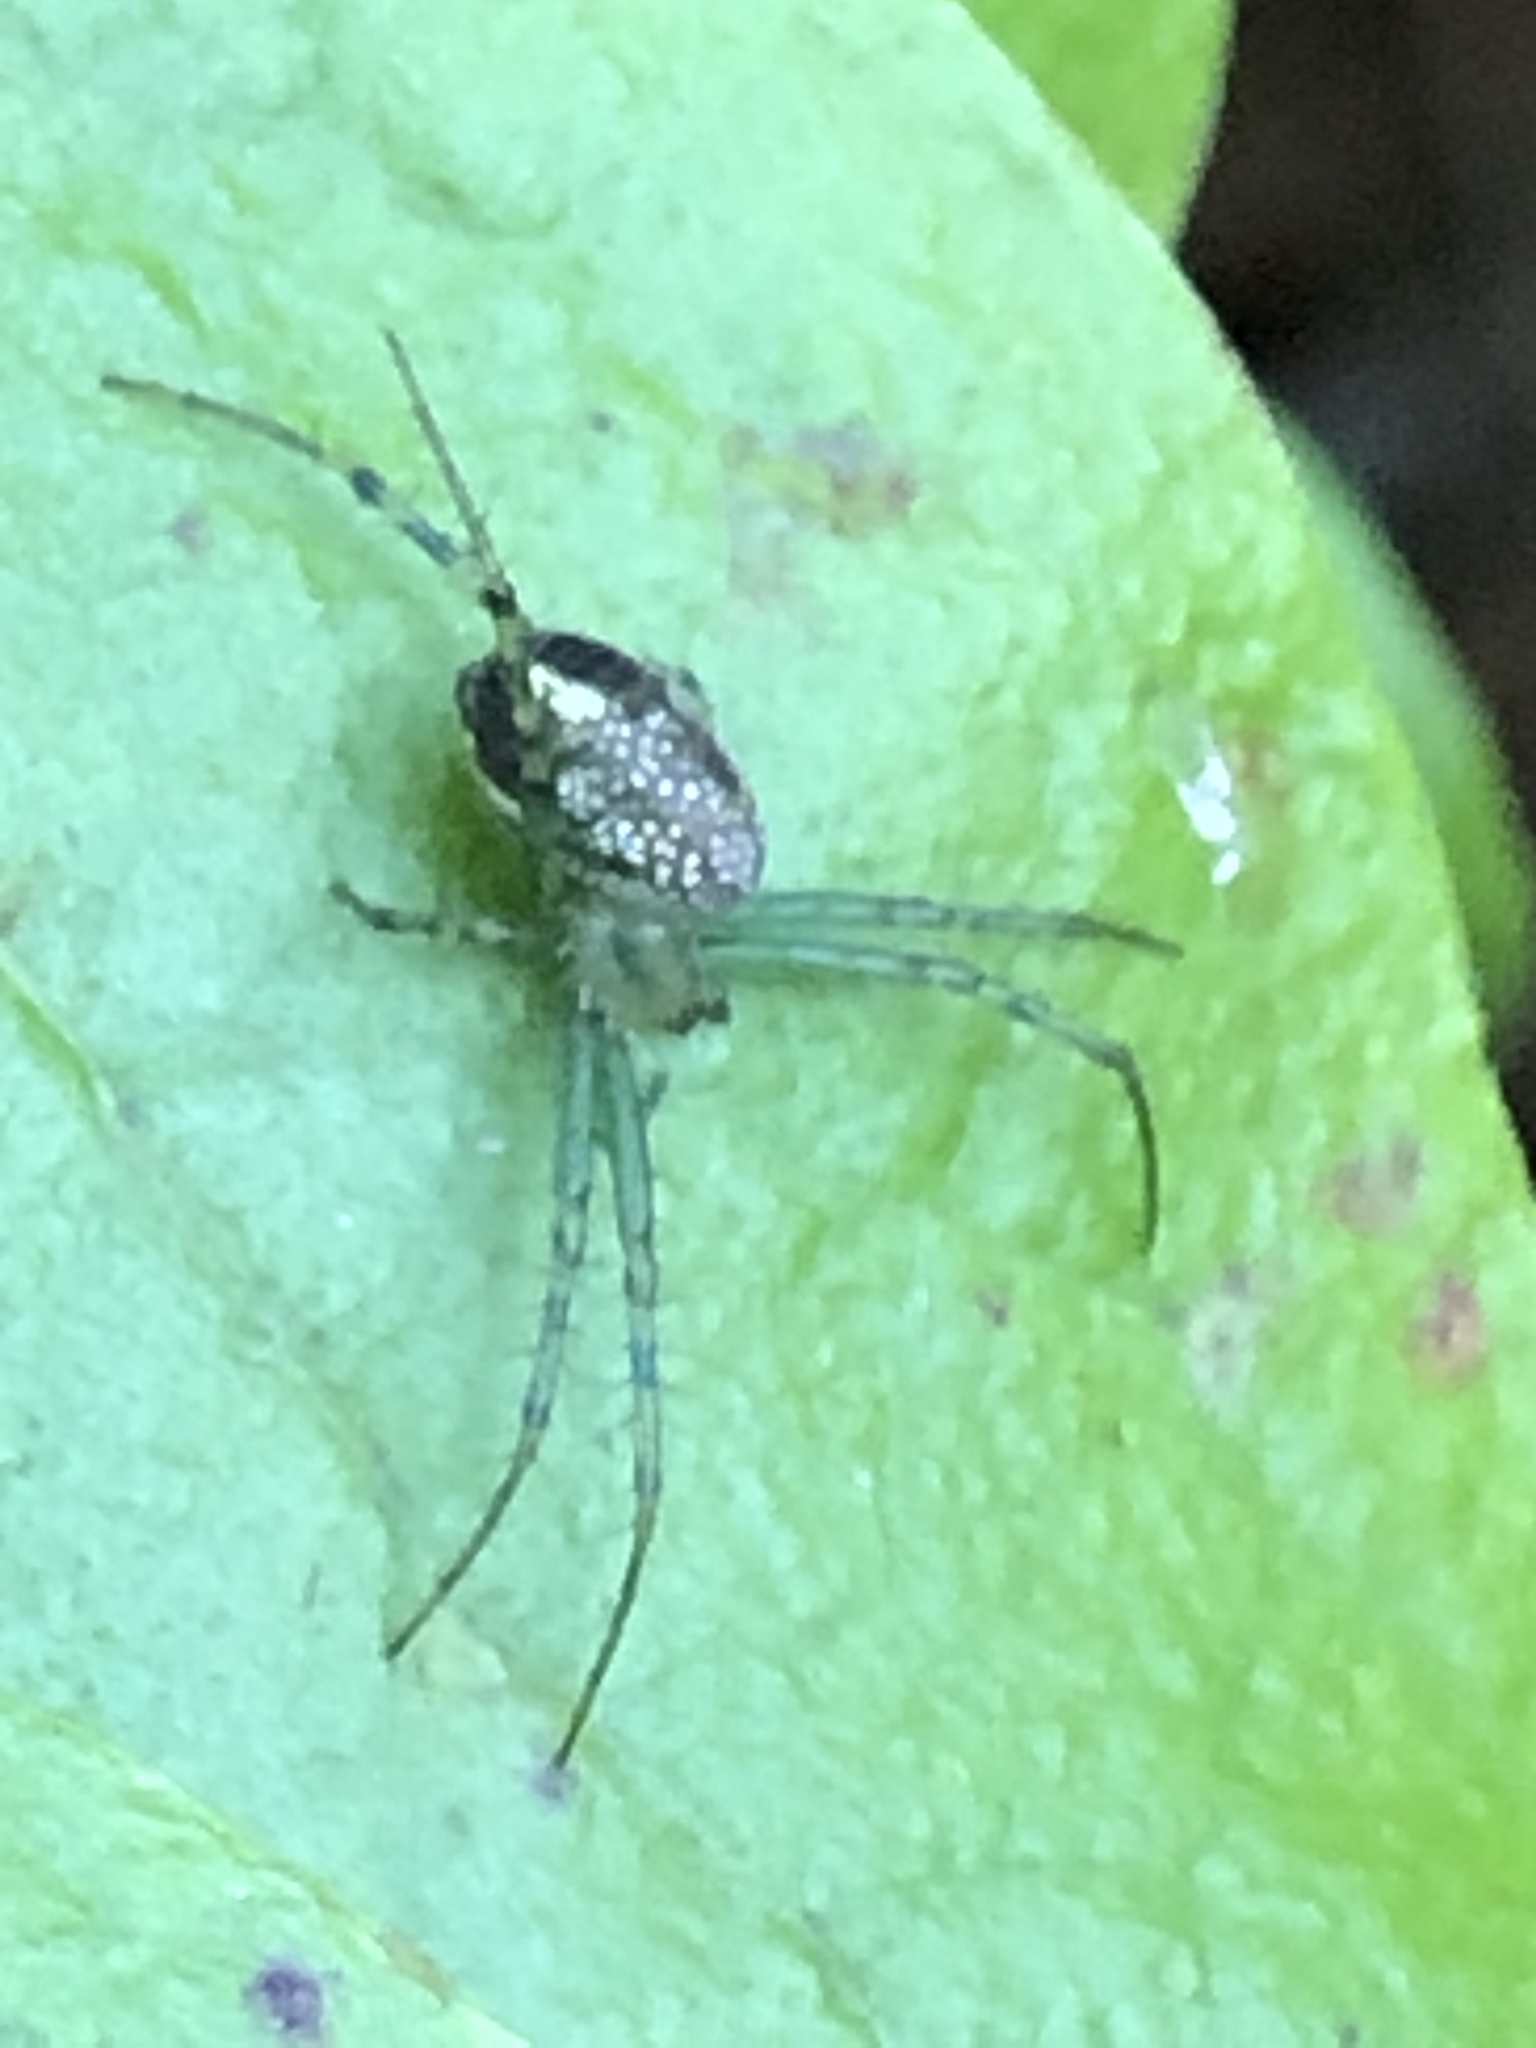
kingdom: Animalia
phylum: Arthropoda
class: Arachnida
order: Araneae
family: Araneidae
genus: Mangora
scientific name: Mangora spiculata
